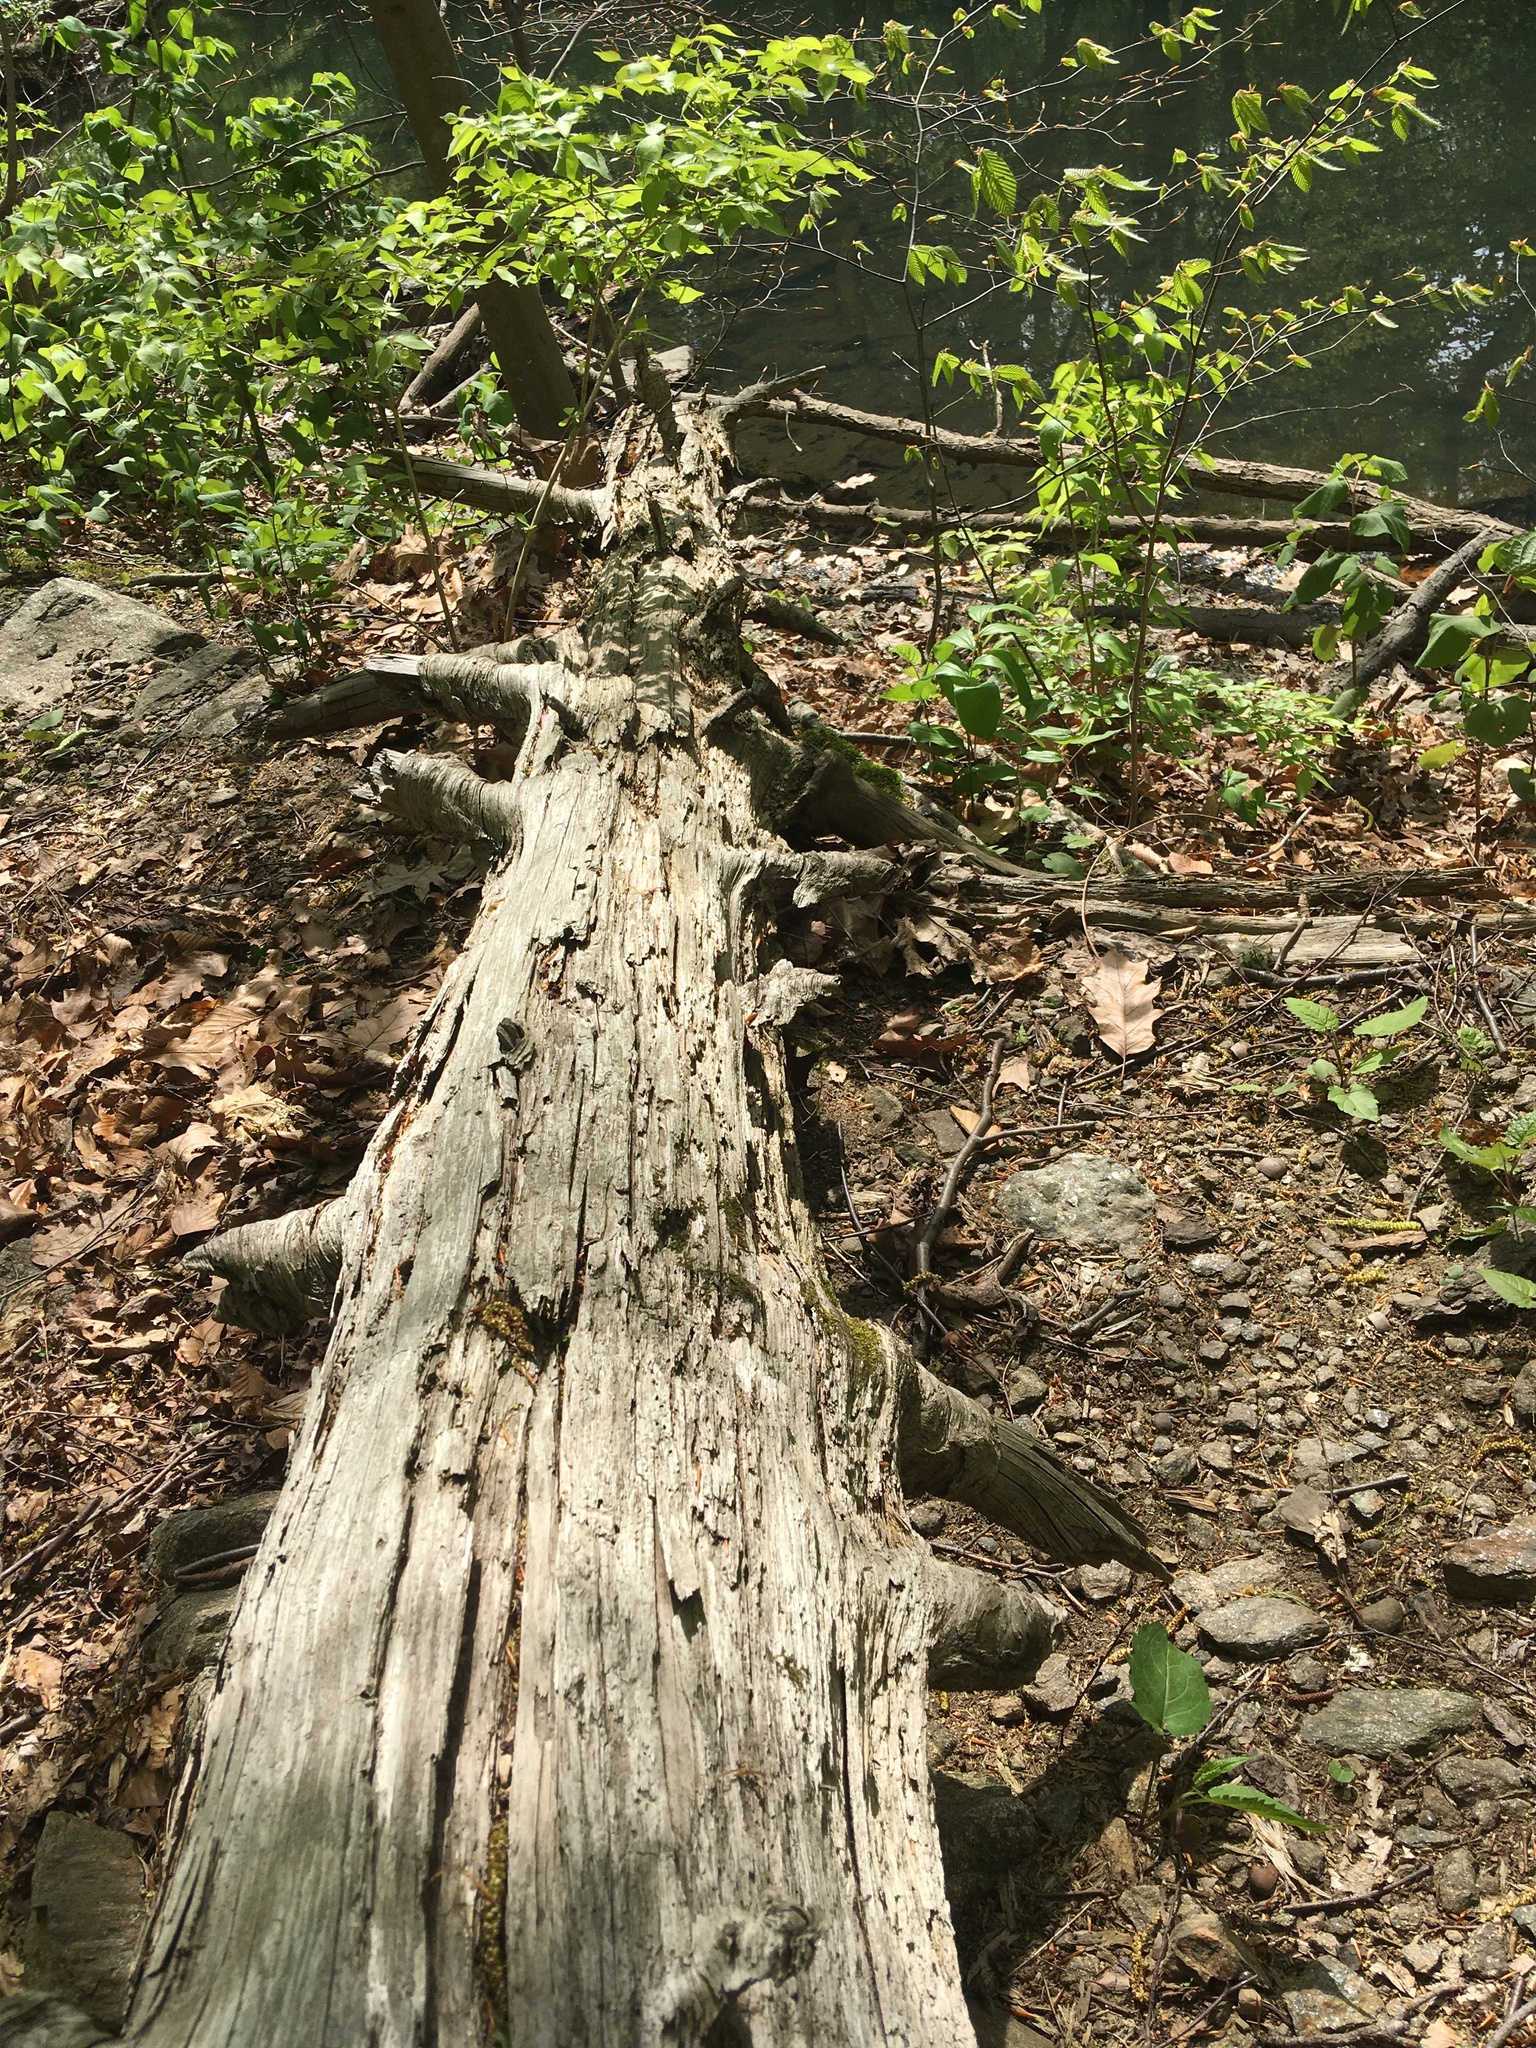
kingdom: Plantae
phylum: Tracheophyta
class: Pinopsida
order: Pinales
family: Pinaceae
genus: Tsuga
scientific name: Tsuga canadensis
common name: Eastern hemlock
